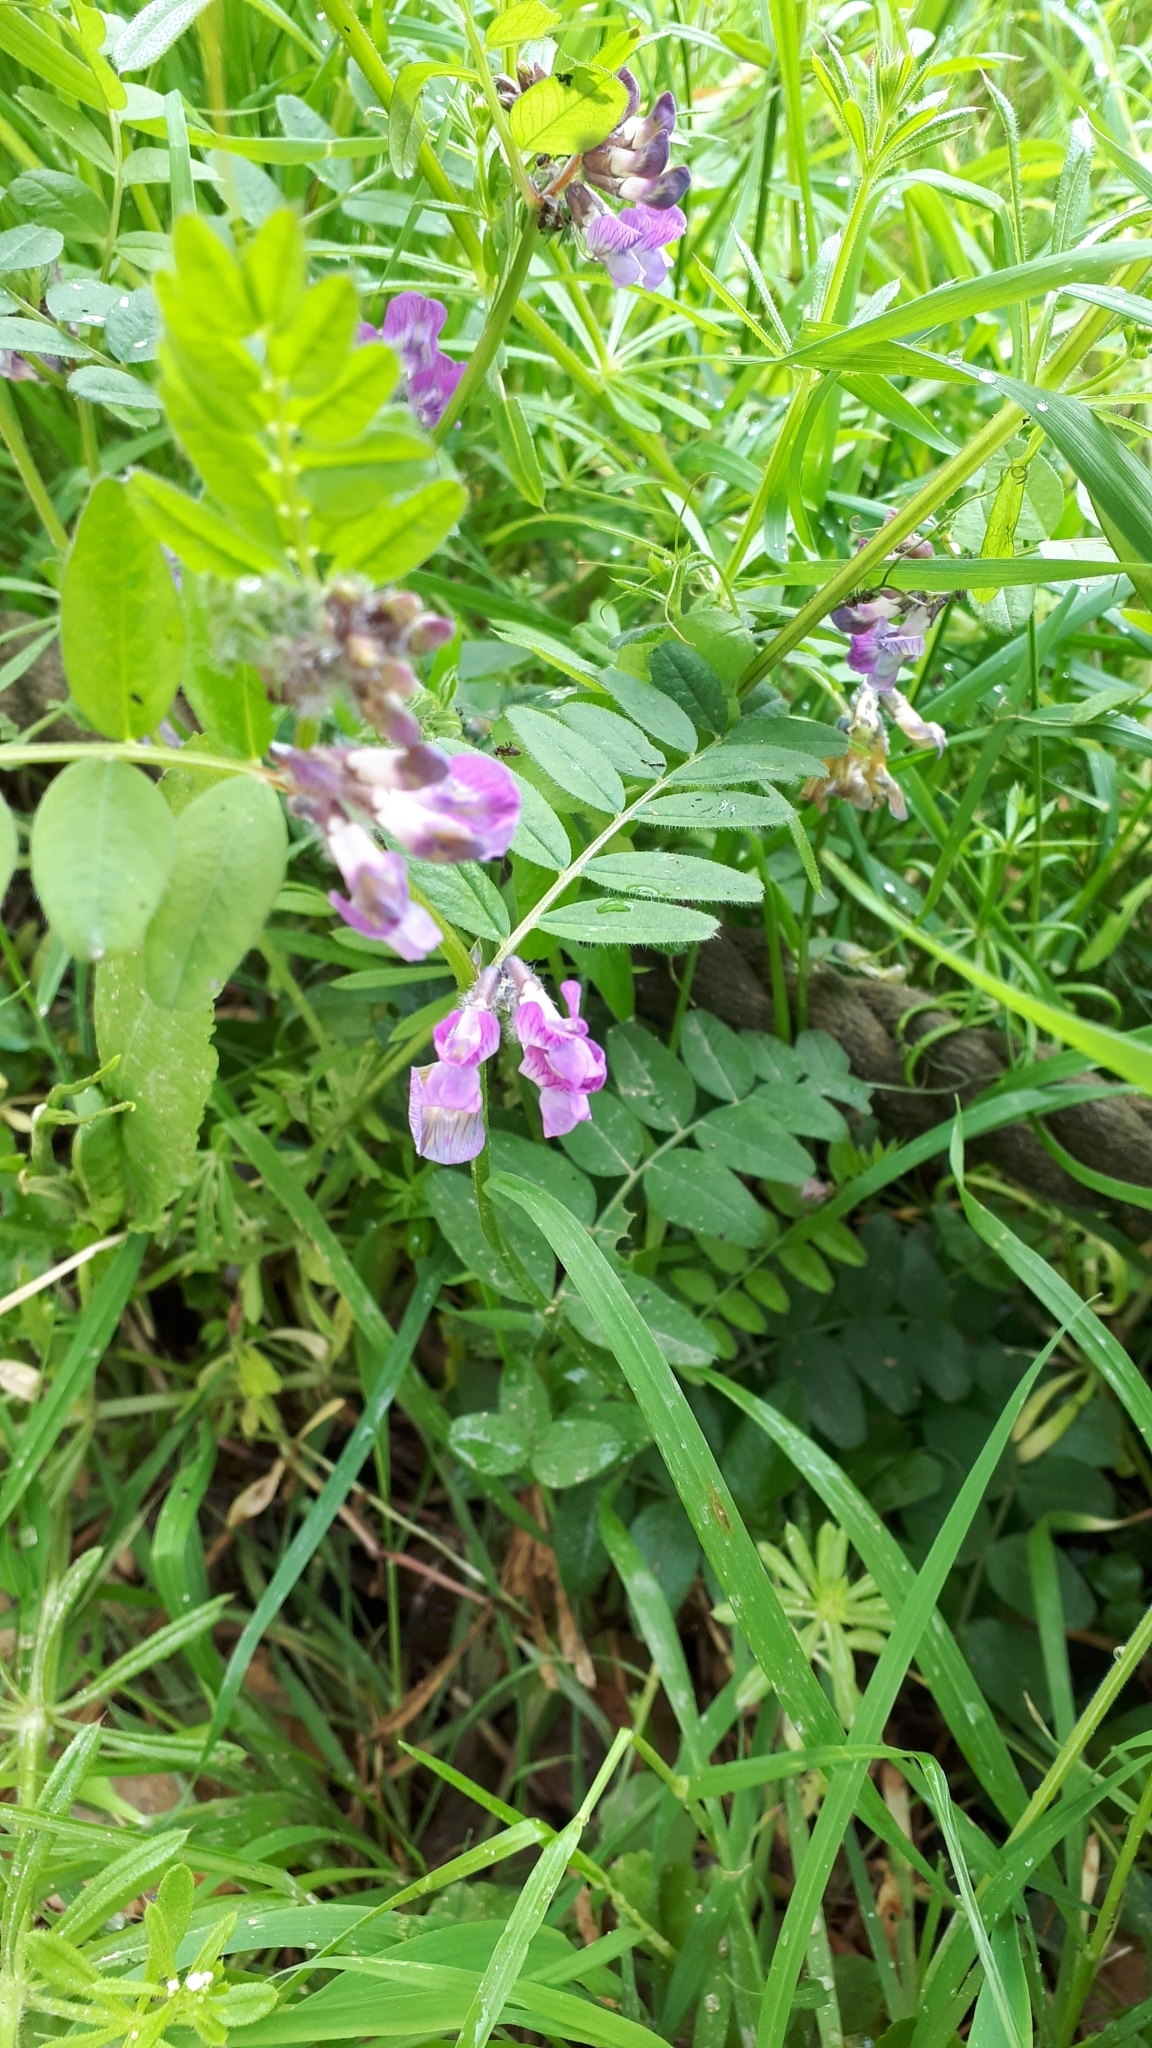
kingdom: Plantae
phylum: Tracheophyta
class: Magnoliopsida
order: Fabales
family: Fabaceae
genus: Vicia
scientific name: Vicia sepium
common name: Bush vetch
